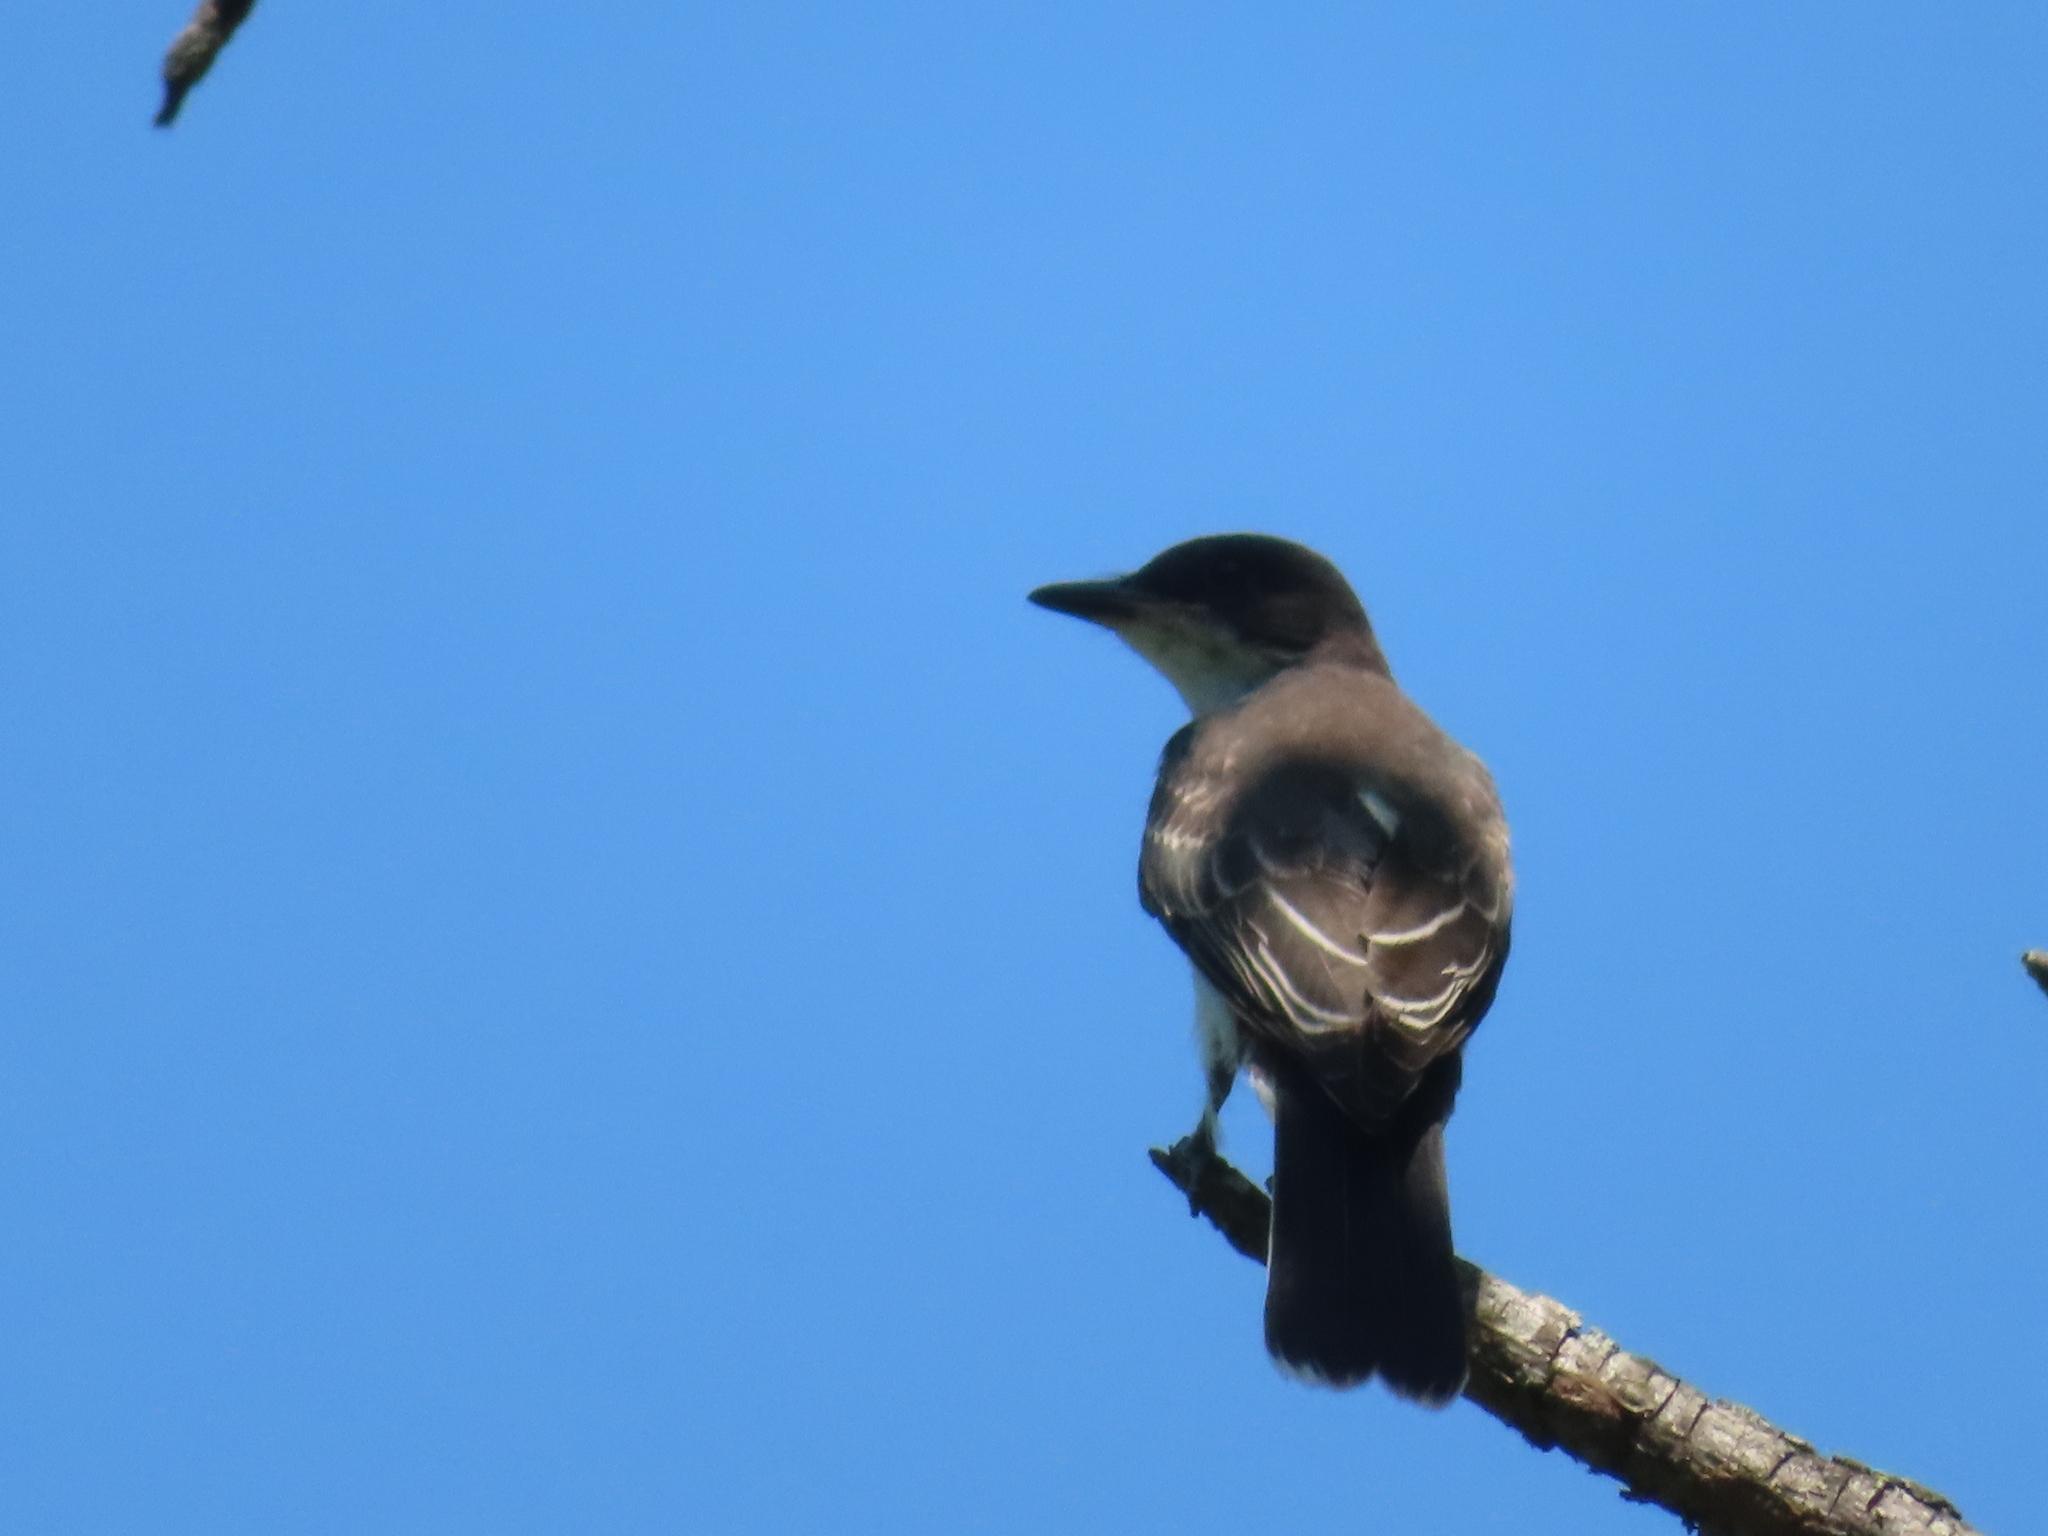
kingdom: Animalia
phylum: Chordata
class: Aves
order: Passeriformes
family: Tyrannidae
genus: Tyrannus
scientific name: Tyrannus tyrannus
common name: Eastern kingbird
